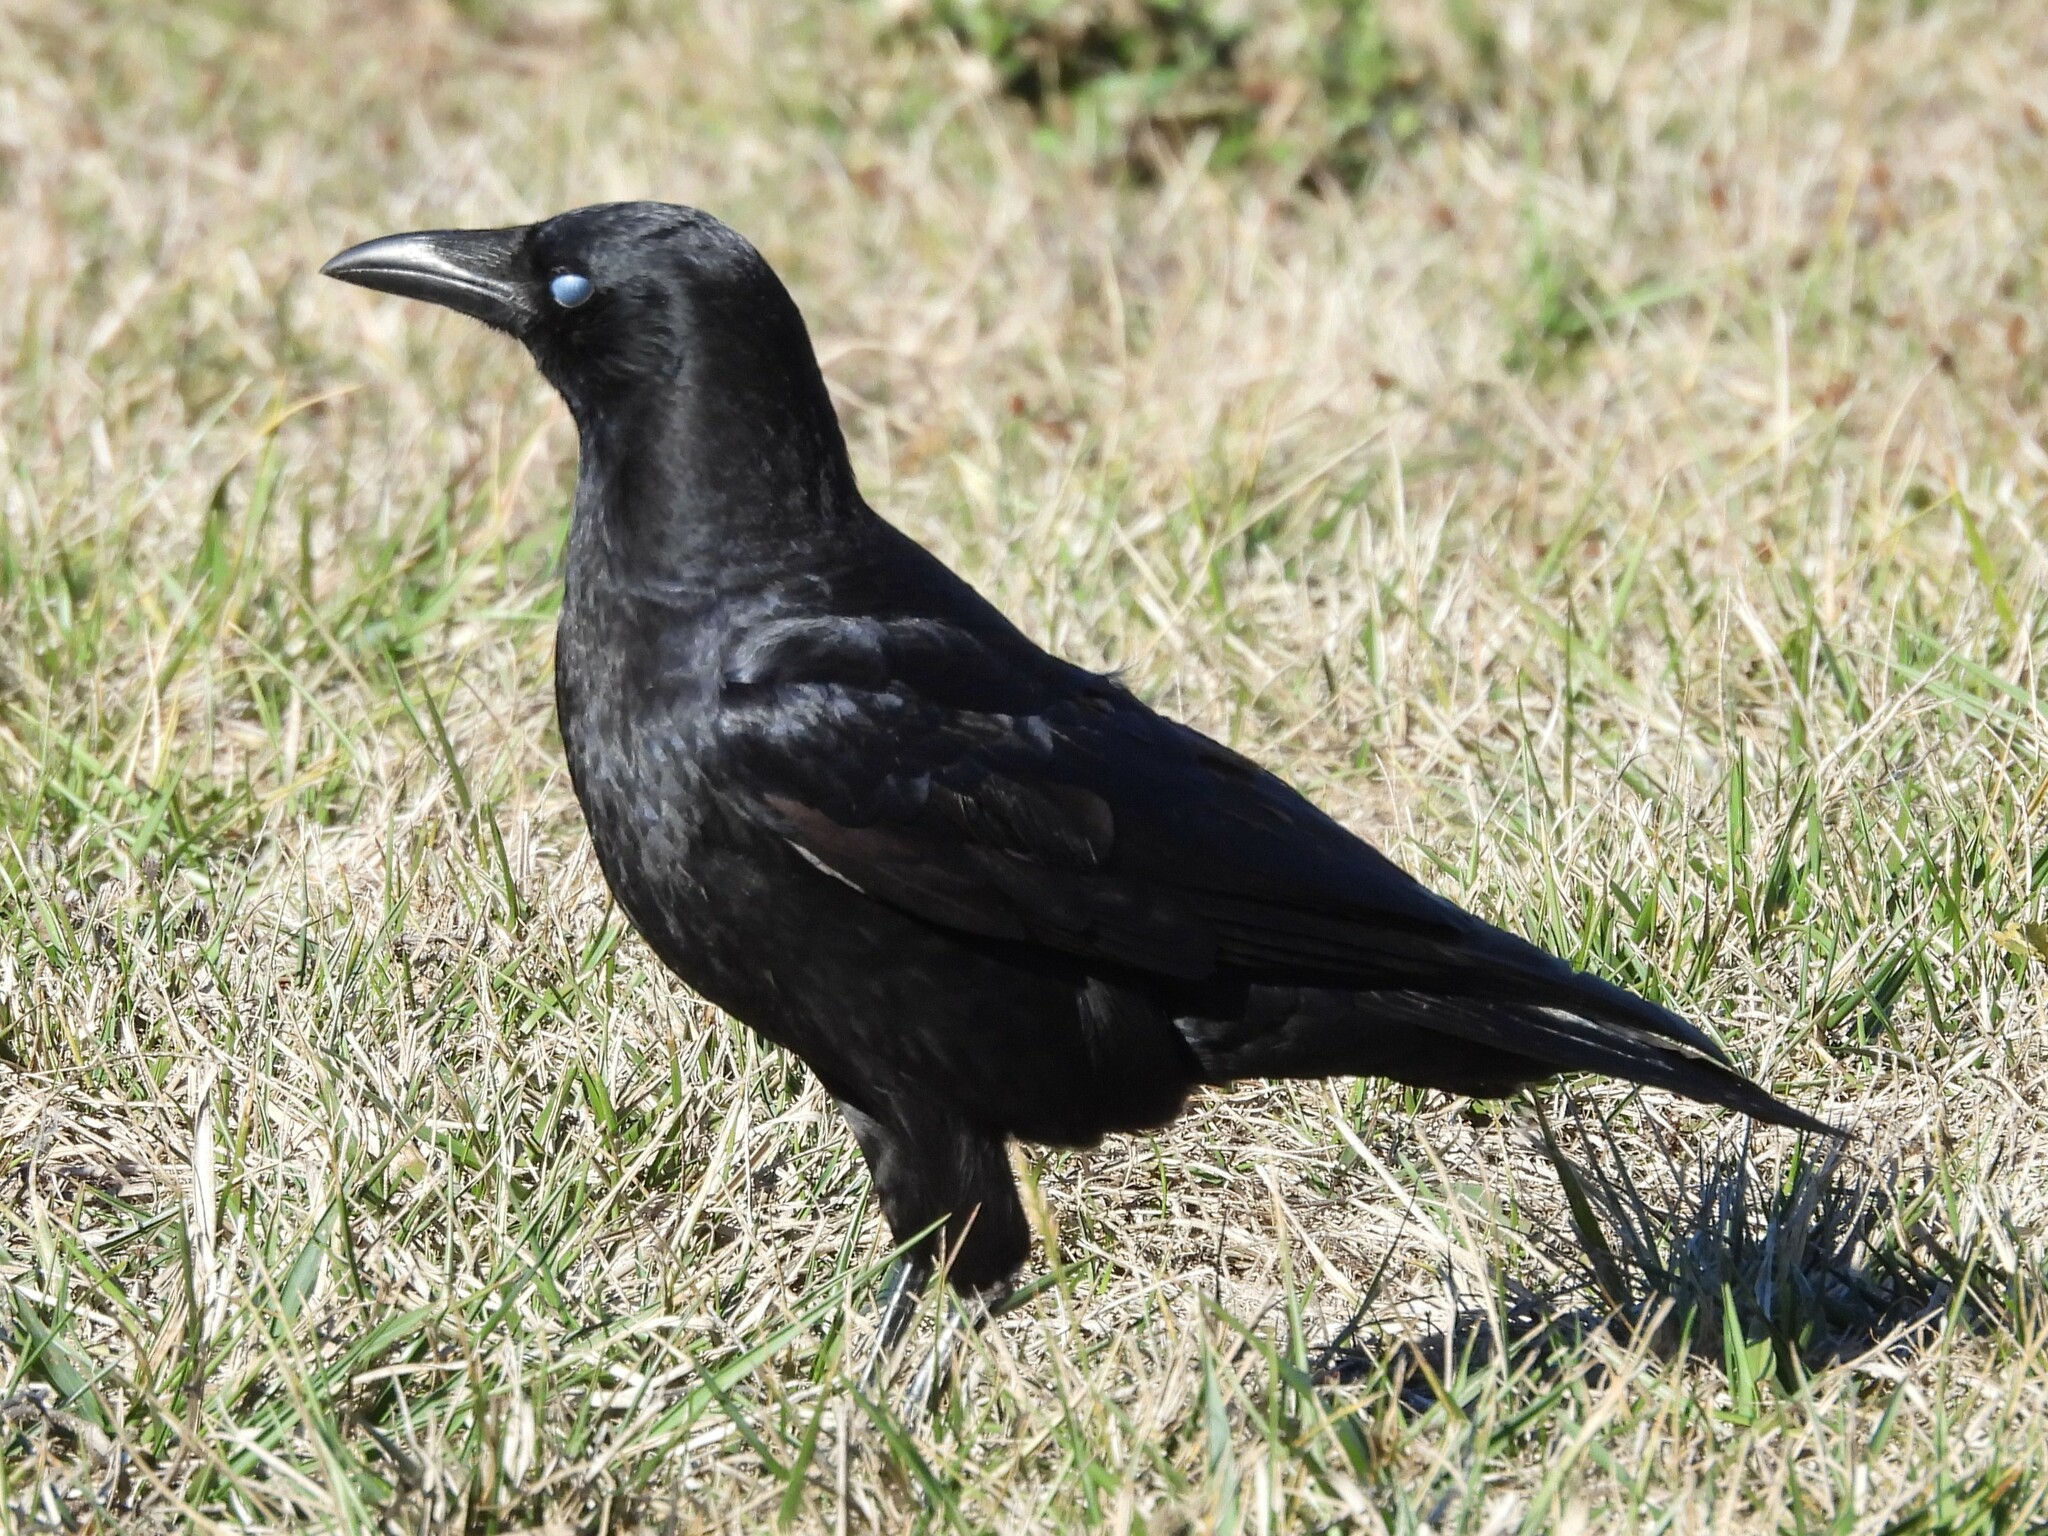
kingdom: Animalia
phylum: Chordata
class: Aves
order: Passeriformes
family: Corvidae
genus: Corvus
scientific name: Corvus brachyrhynchos
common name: American crow
